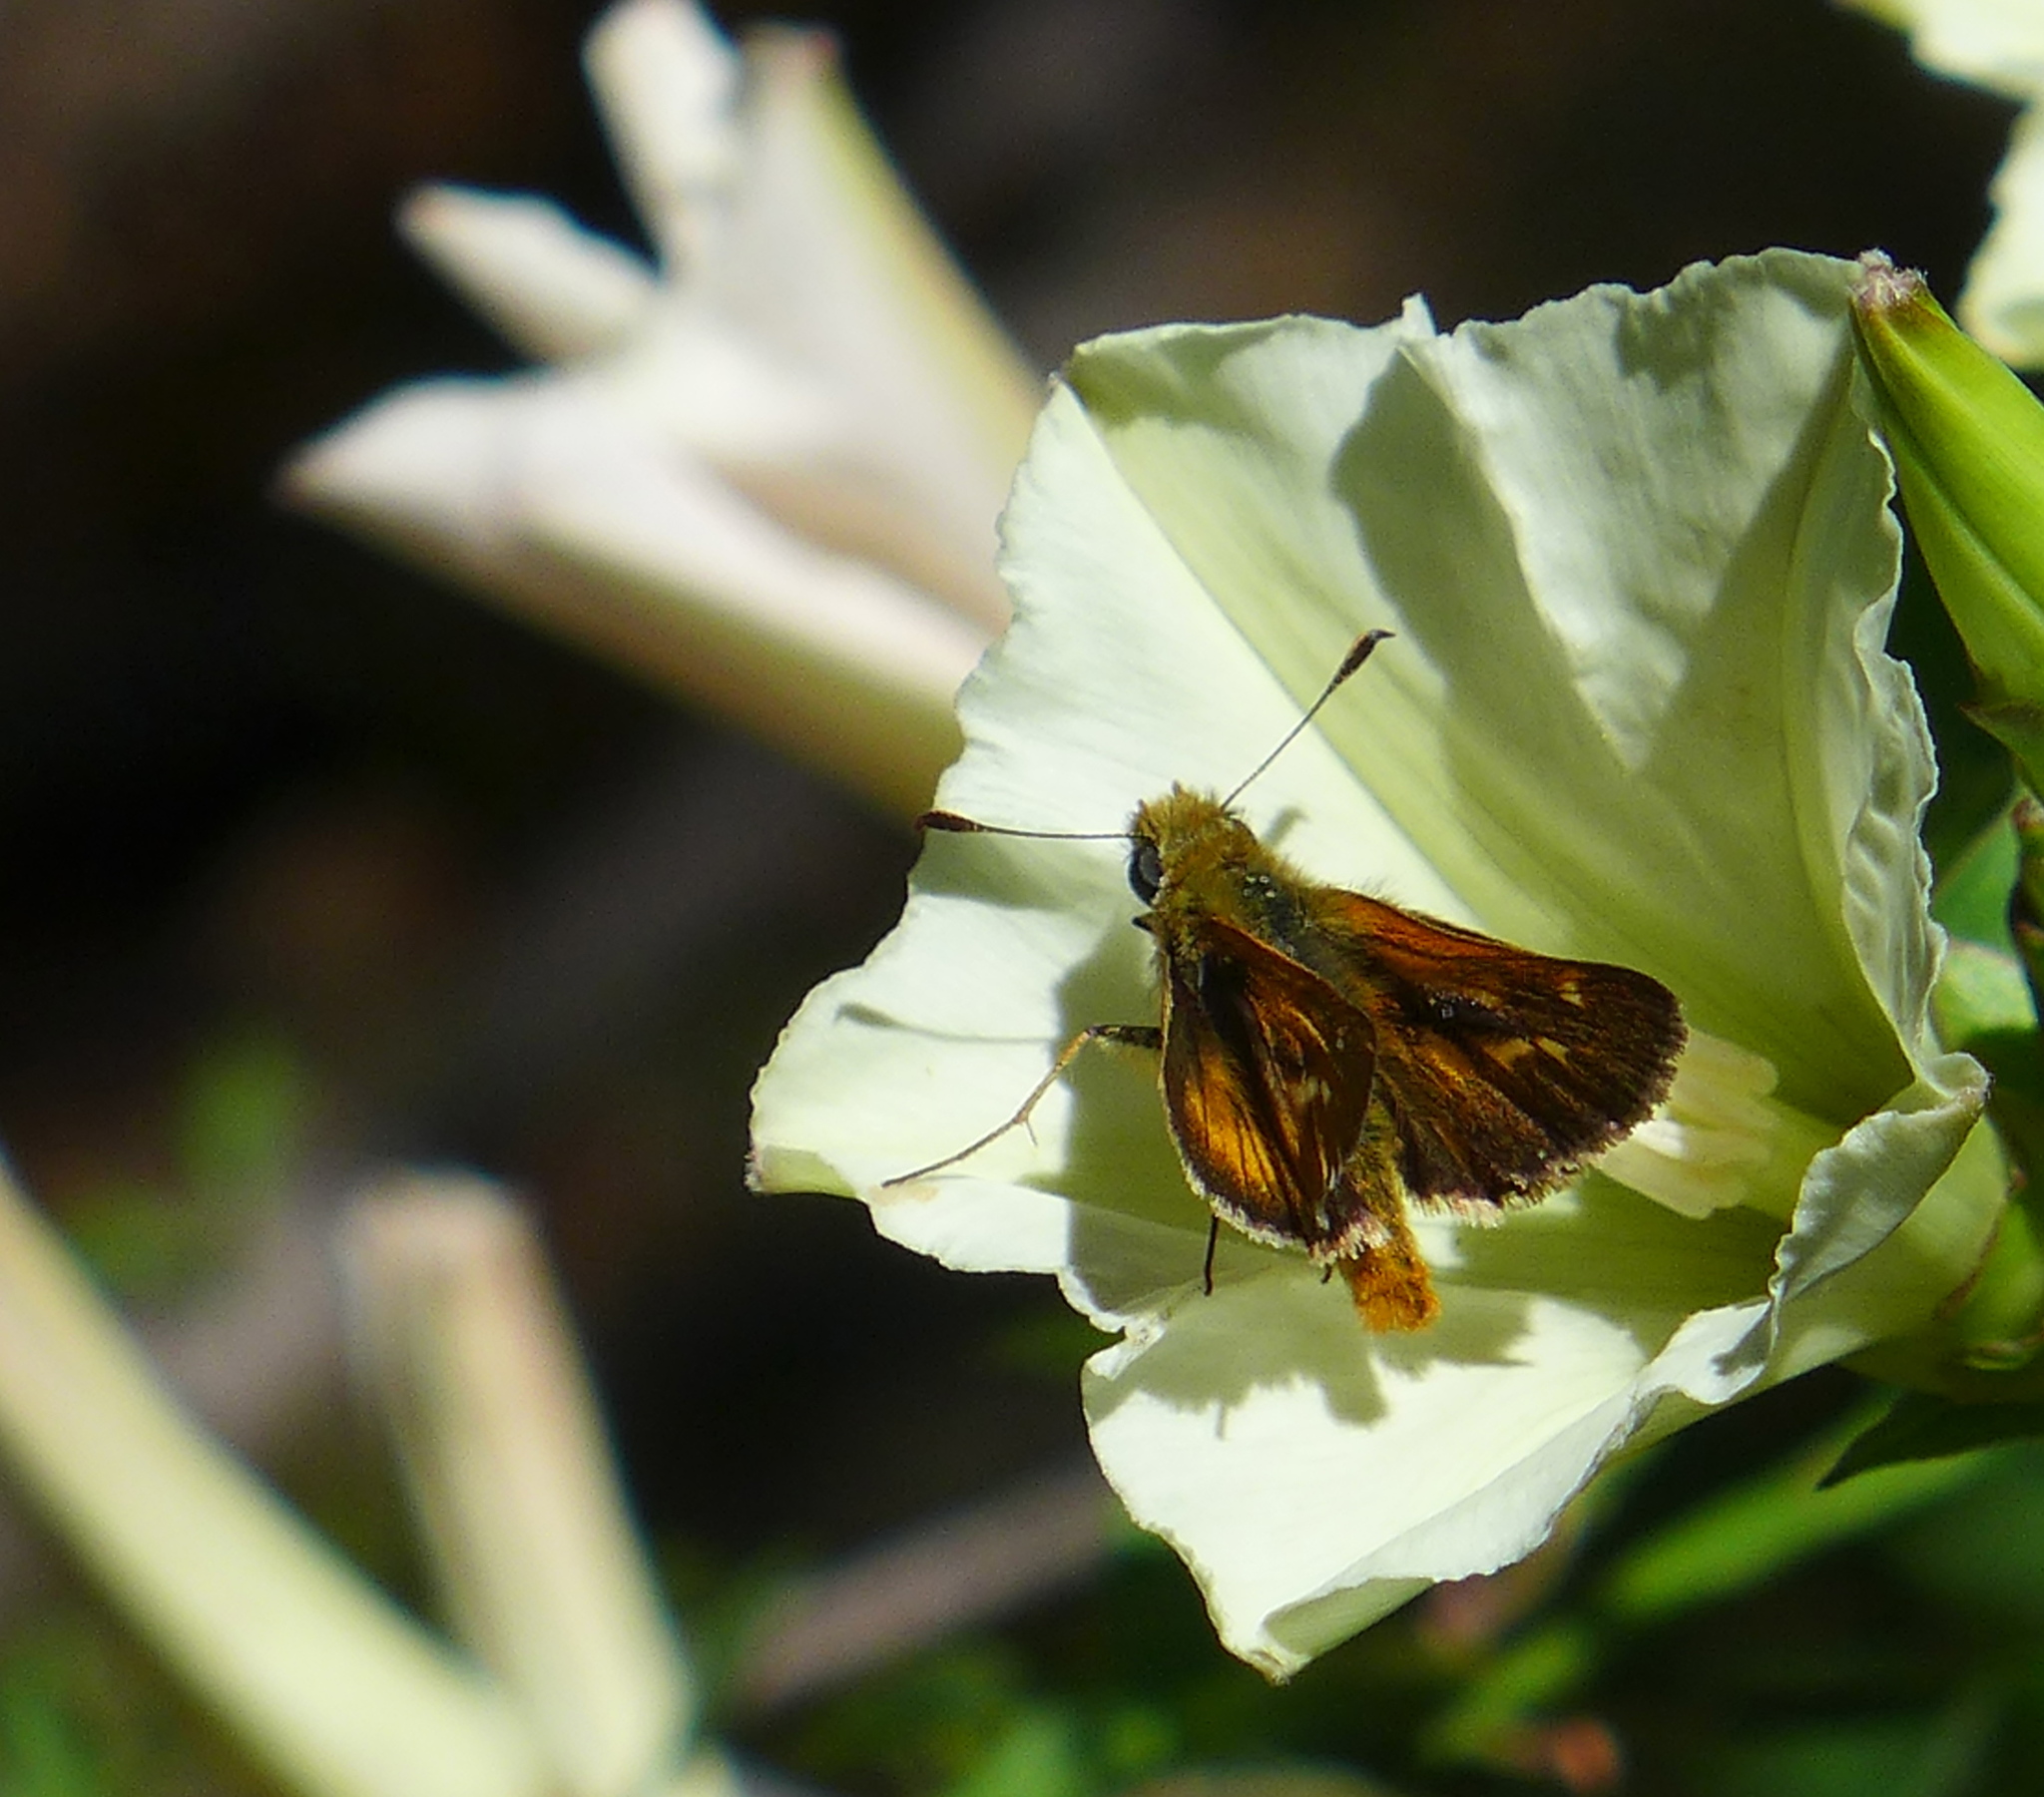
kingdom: Animalia
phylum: Arthropoda
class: Insecta
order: Lepidoptera
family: Hesperiidae
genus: Ochlodes
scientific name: Ochlodes agricola
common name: Rural skipper
